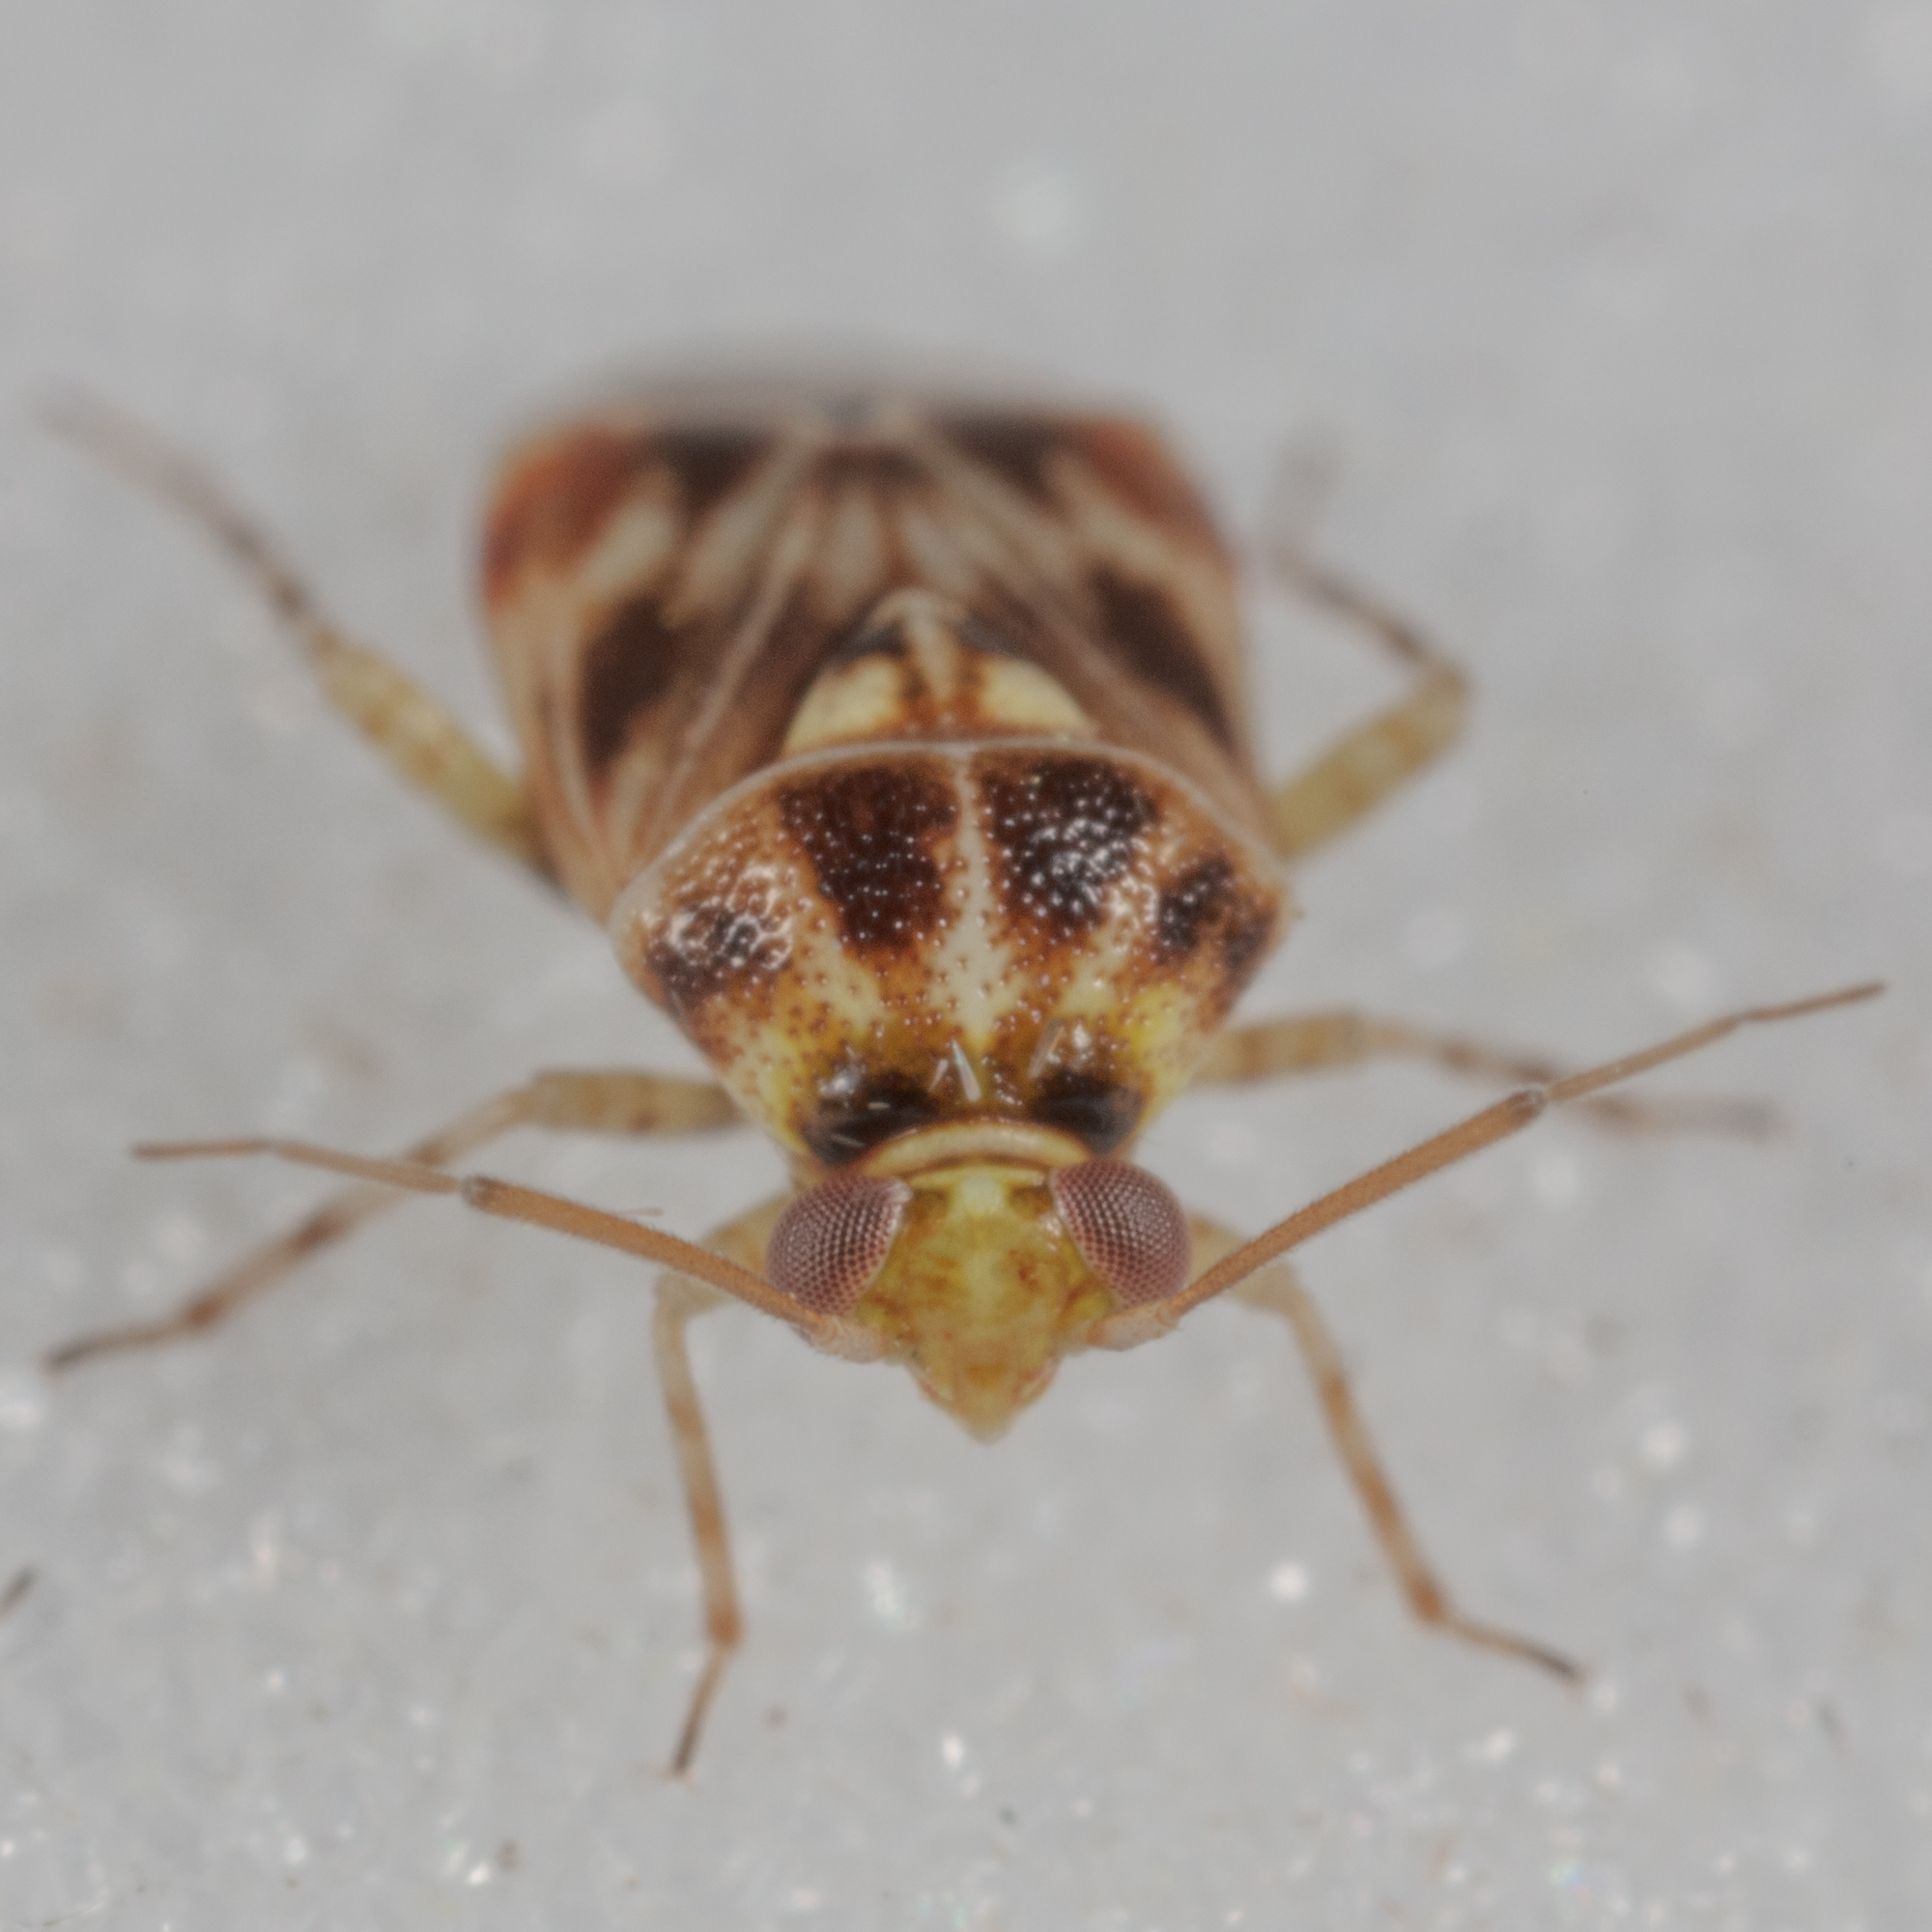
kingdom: Animalia
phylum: Arthropoda
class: Insecta
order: Hemiptera
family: Miridae
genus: Tropidosteptes
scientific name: Tropidosteptes quercicola
